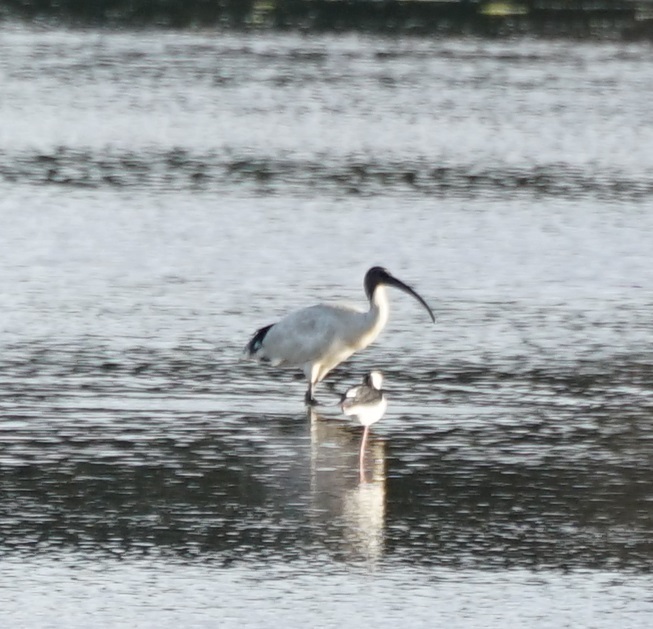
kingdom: Animalia
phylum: Chordata
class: Aves
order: Pelecaniformes
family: Threskiornithidae
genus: Threskiornis
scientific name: Threskiornis molucca
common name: Australian white ibis
